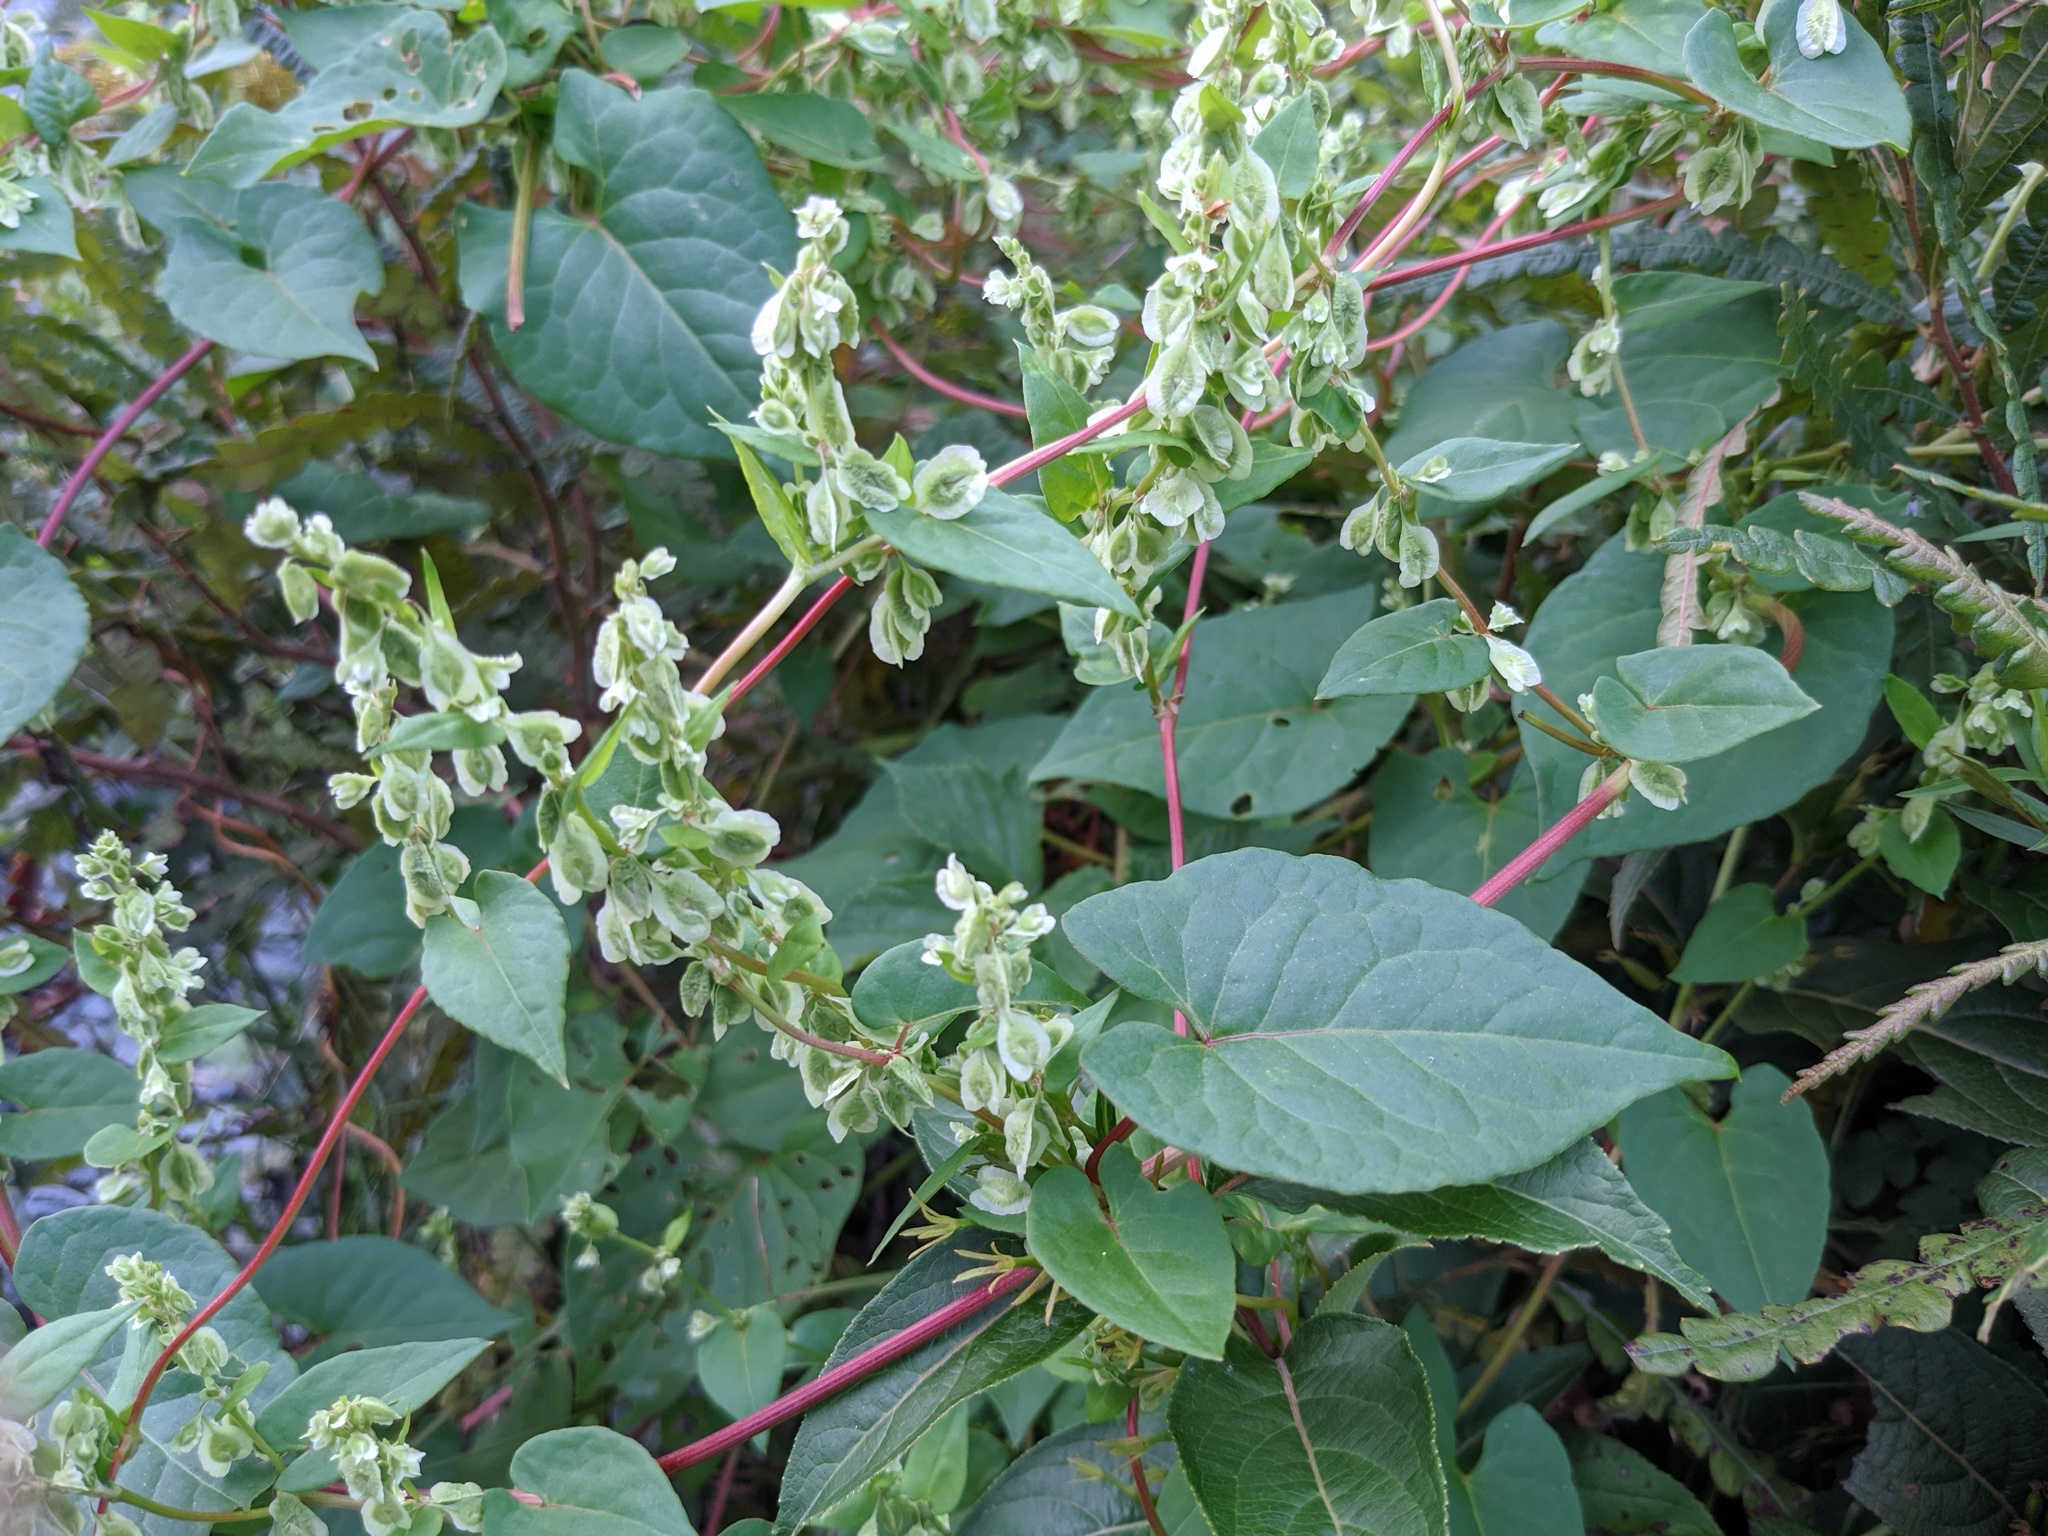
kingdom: Plantae
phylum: Tracheophyta
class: Magnoliopsida
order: Caryophyllales
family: Polygonaceae
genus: Fallopia
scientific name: Fallopia scandens
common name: Climbing false buckwheat
